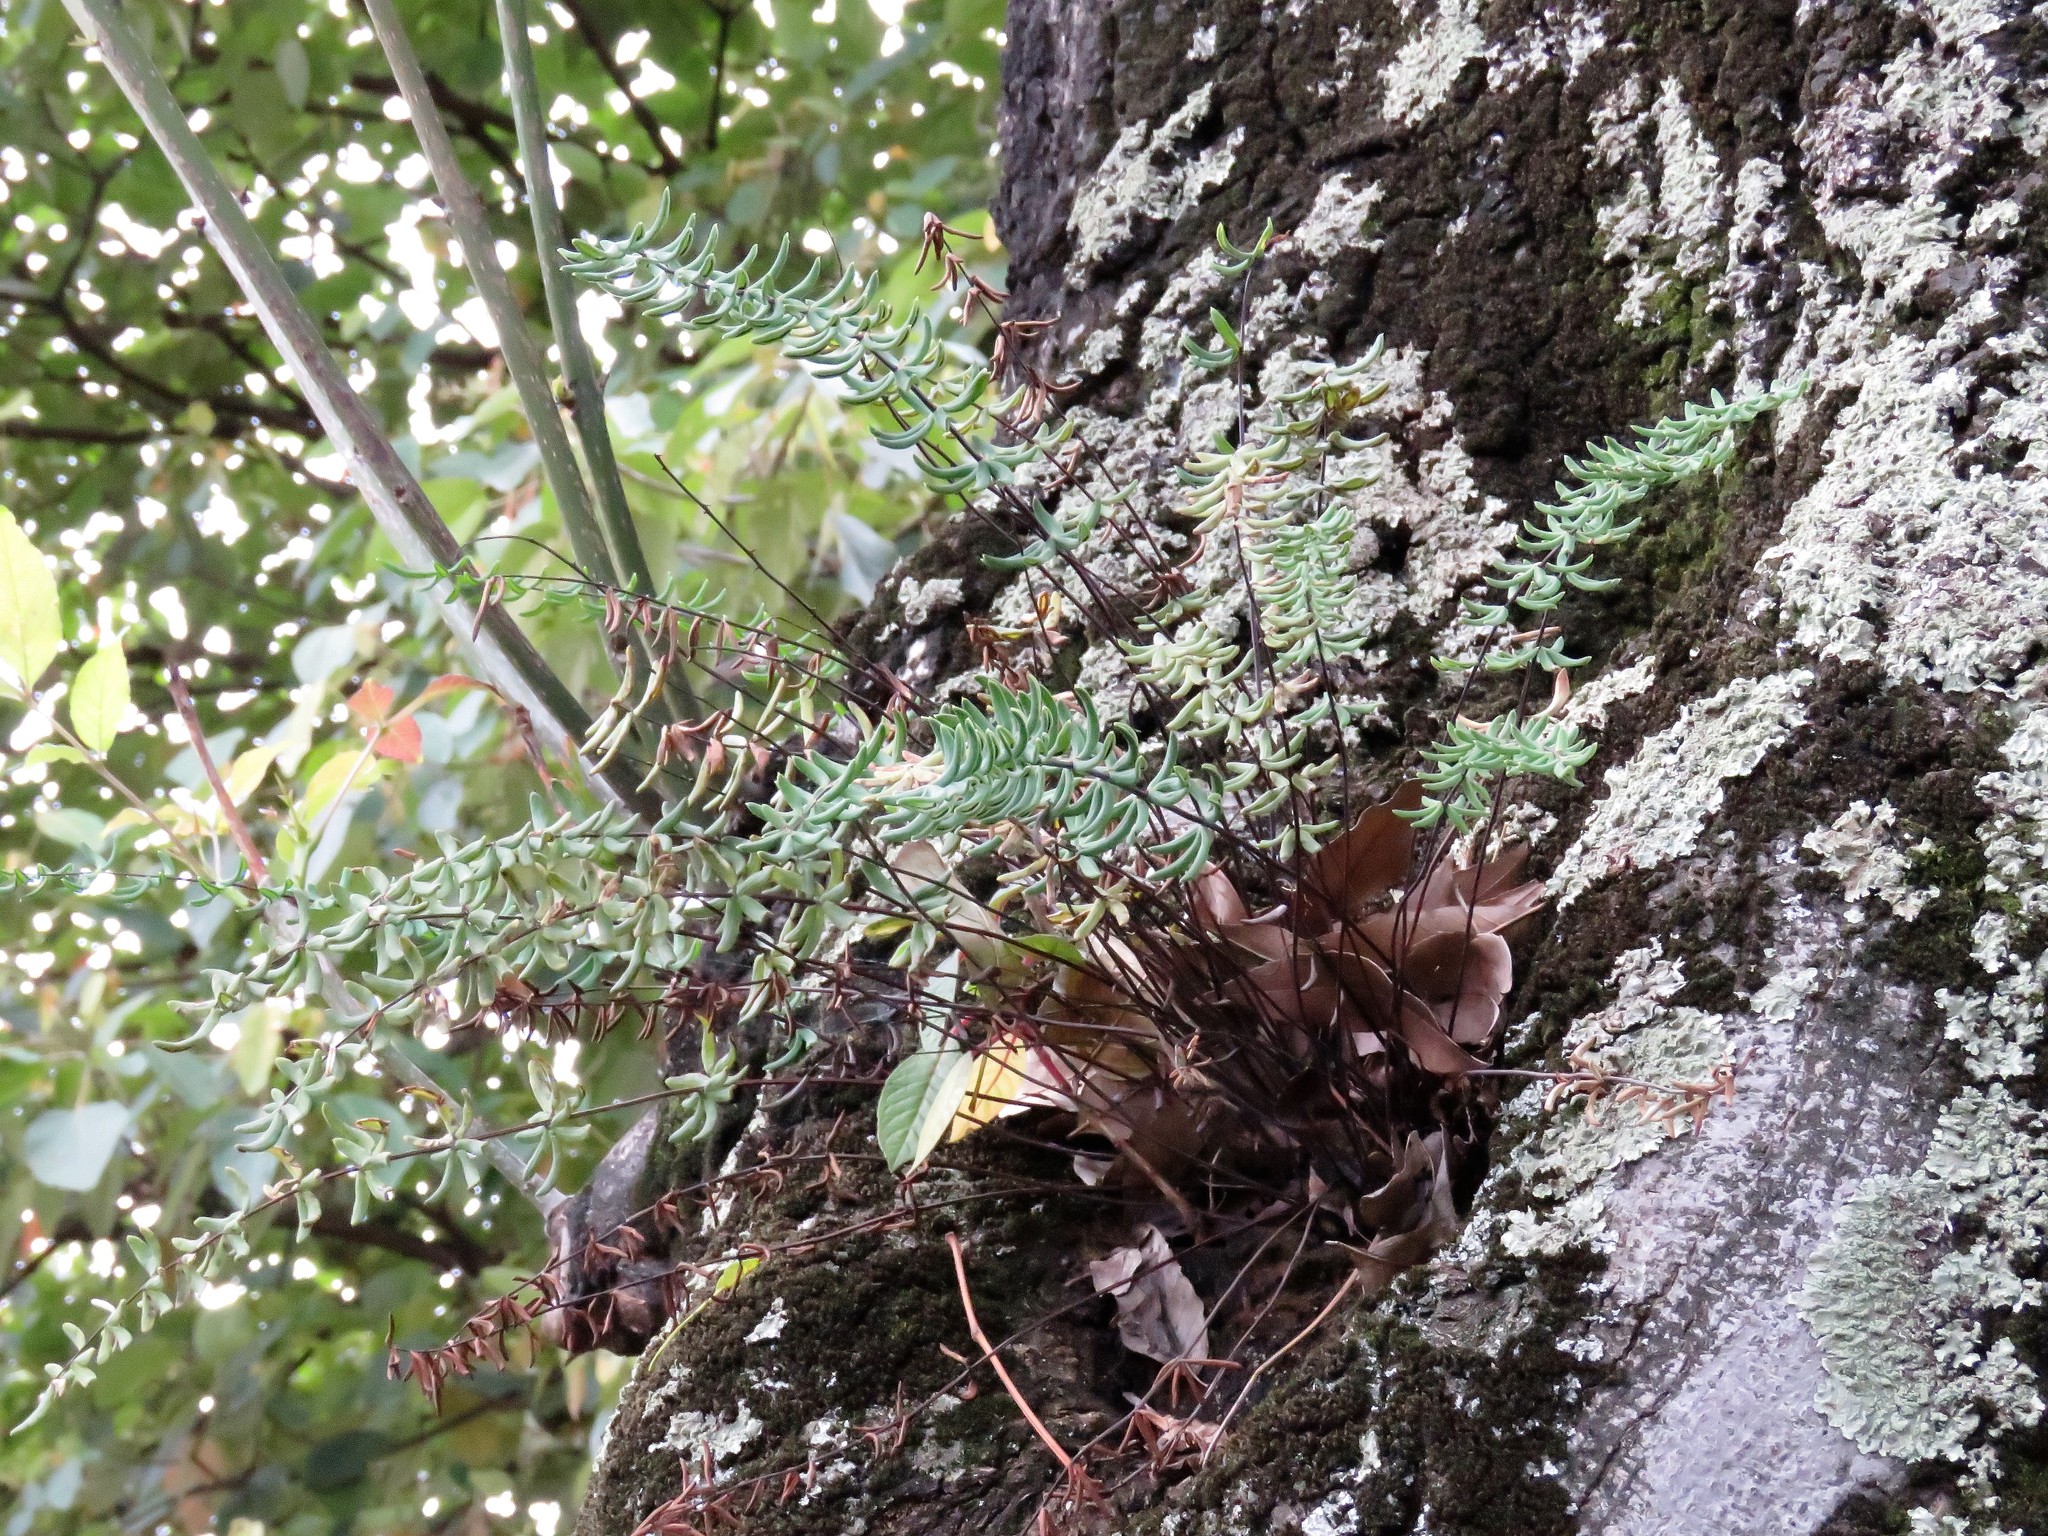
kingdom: Plantae
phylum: Tracheophyta
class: Polypodiopsida
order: Polypodiales
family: Pteridaceae
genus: Pellaea
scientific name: Pellaea ternifolia
